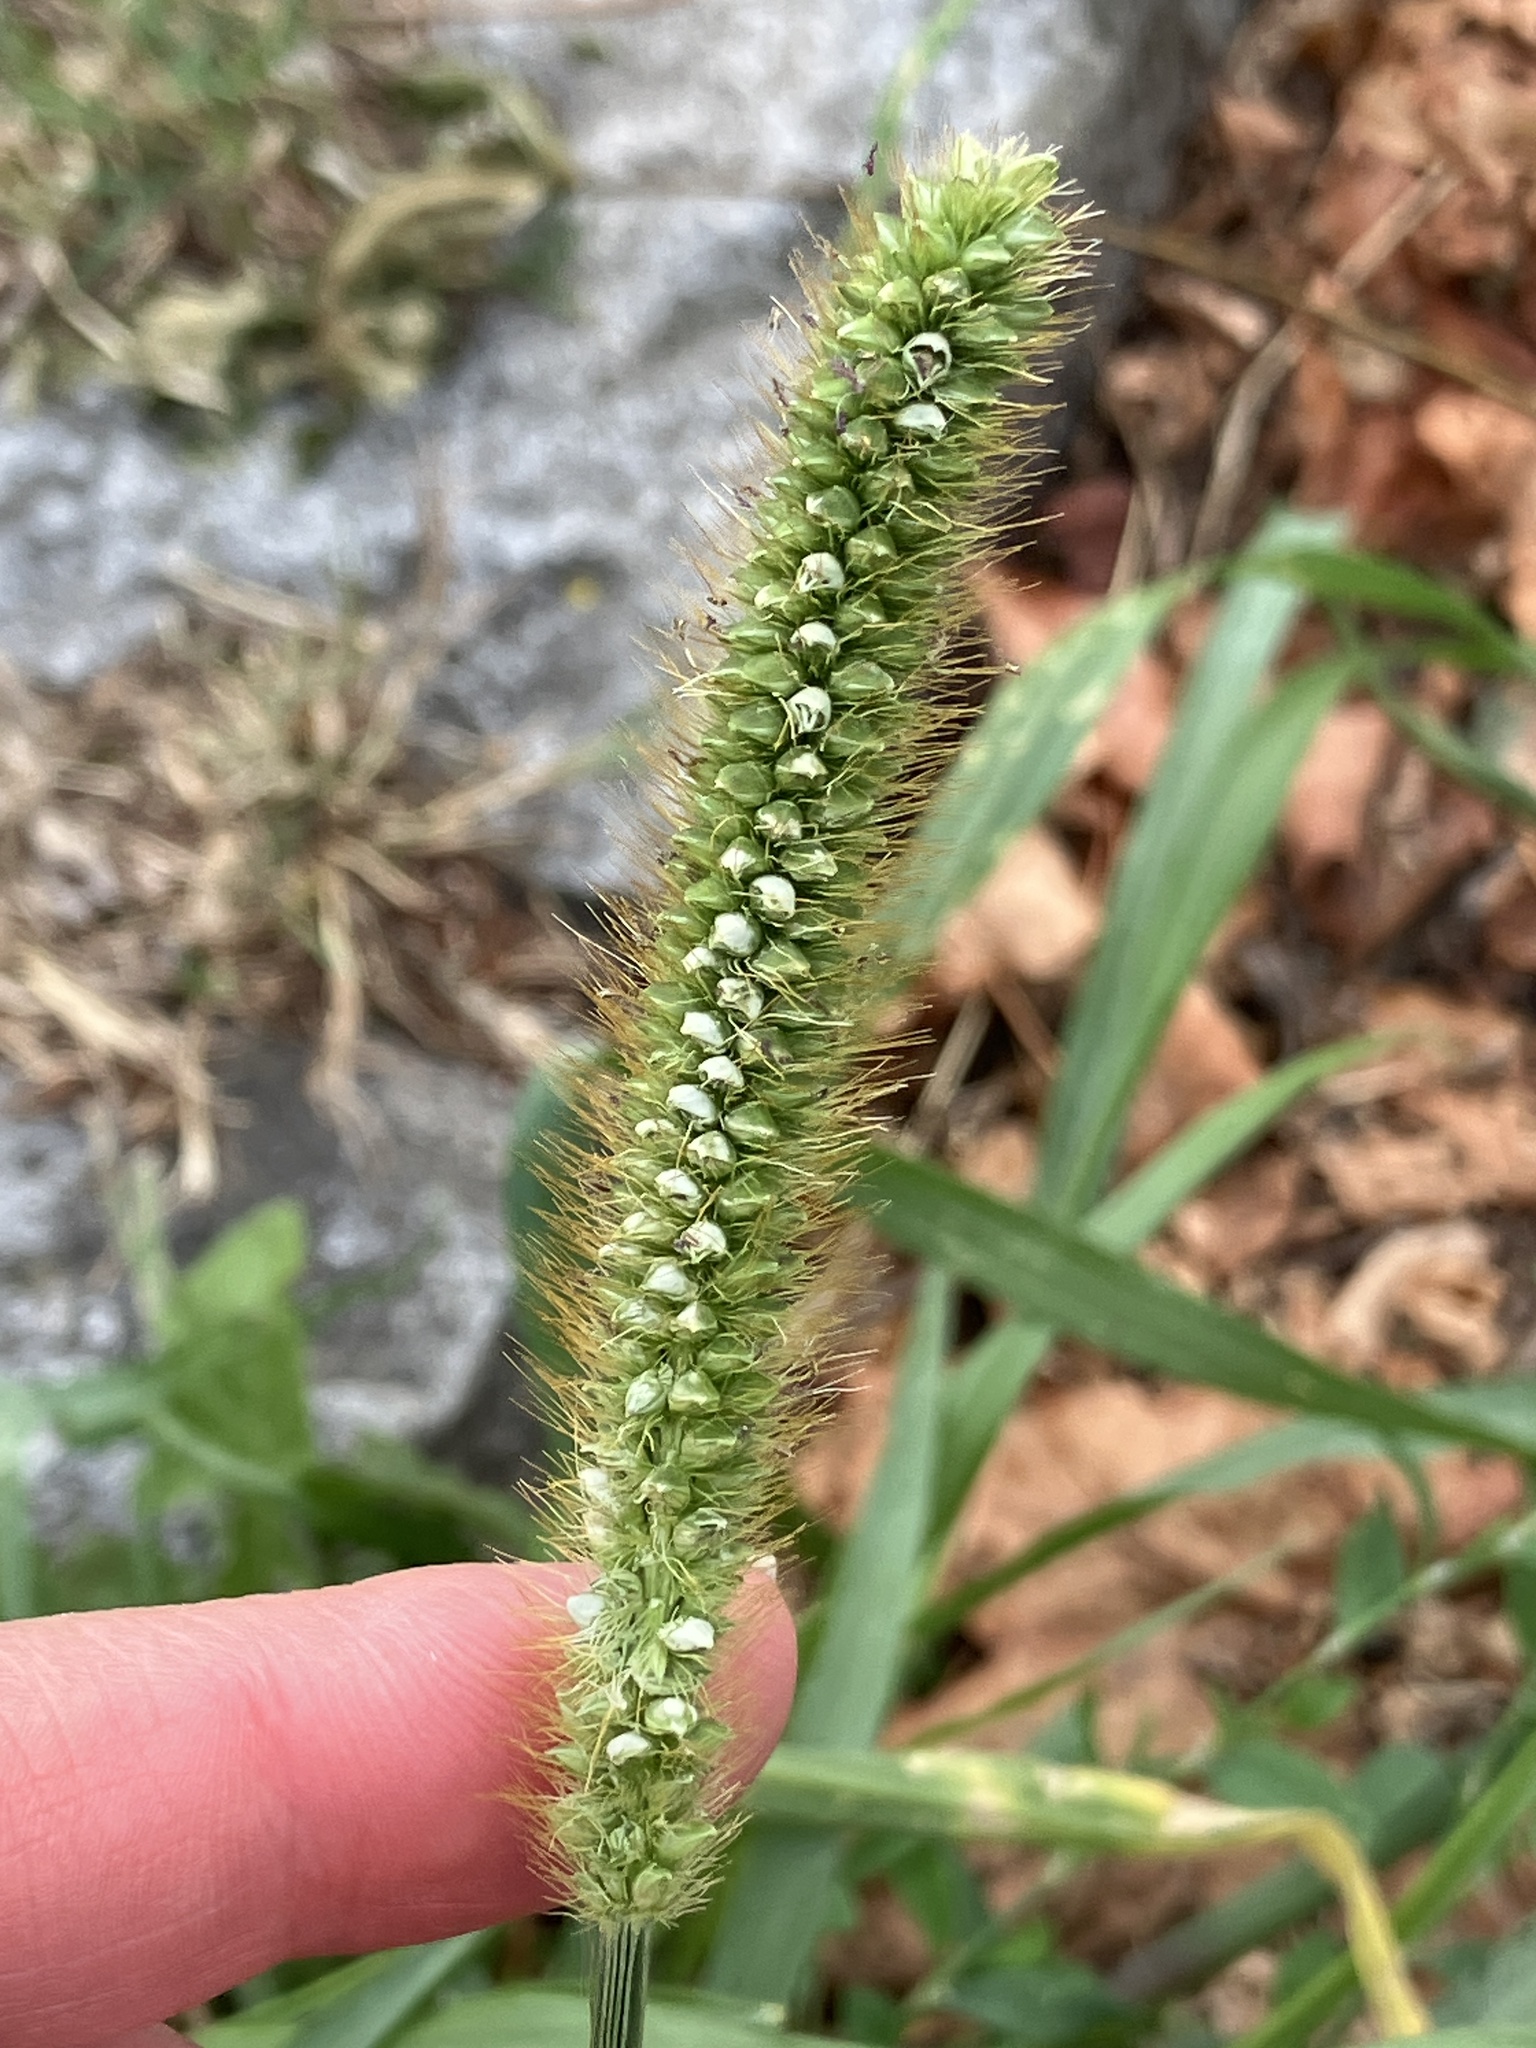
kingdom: Plantae
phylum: Tracheophyta
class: Liliopsida
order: Poales
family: Poaceae
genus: Setaria
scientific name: Setaria pumila
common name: Yellow bristle-grass
